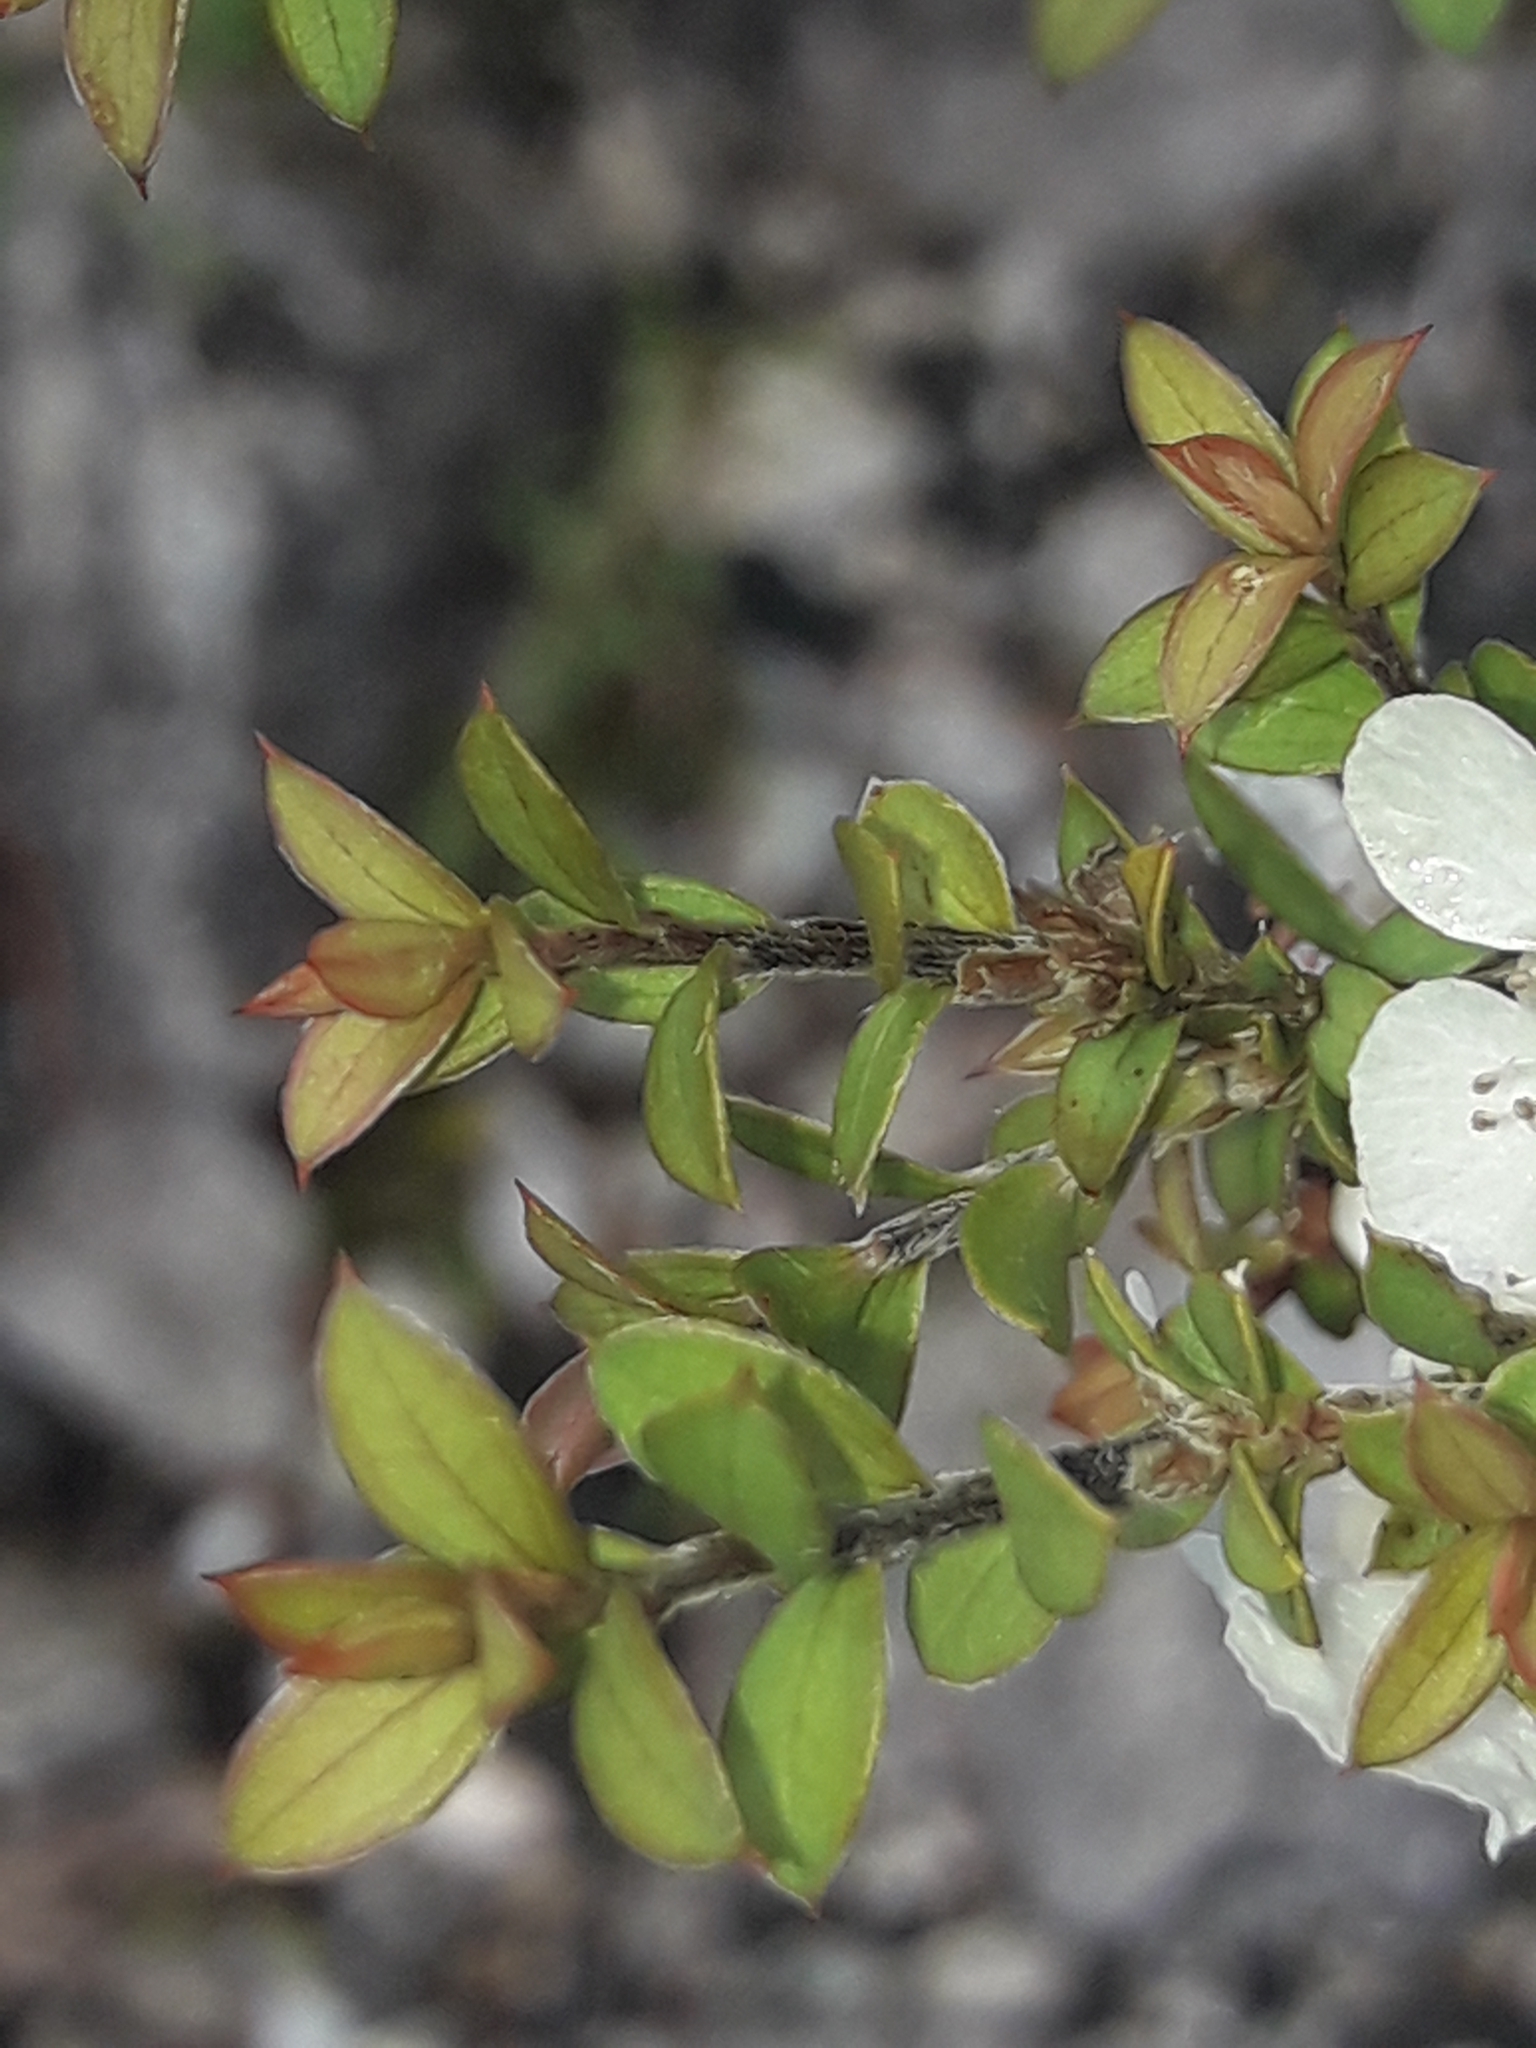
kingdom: Plantae
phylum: Tracheophyta
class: Magnoliopsida
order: Myrtales
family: Myrtaceae
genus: Leptospermum
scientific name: Leptospermum scoparium
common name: Broom tea-tree
